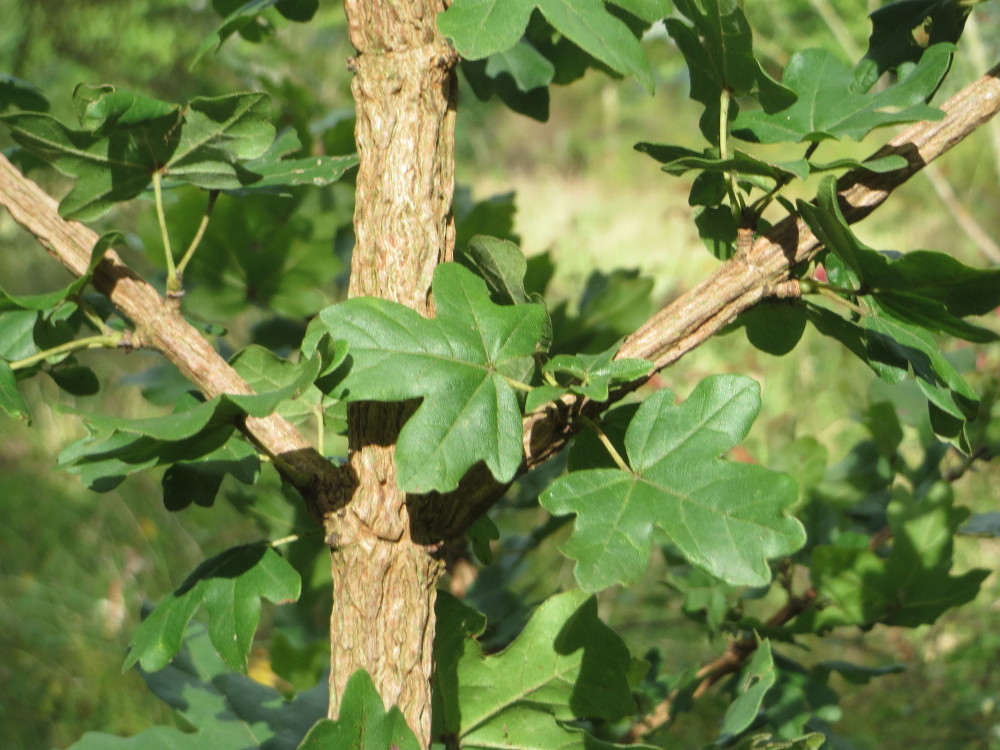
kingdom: Plantae
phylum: Tracheophyta
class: Magnoliopsida
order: Sapindales
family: Sapindaceae
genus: Acer
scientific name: Acer campestre
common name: Field maple
